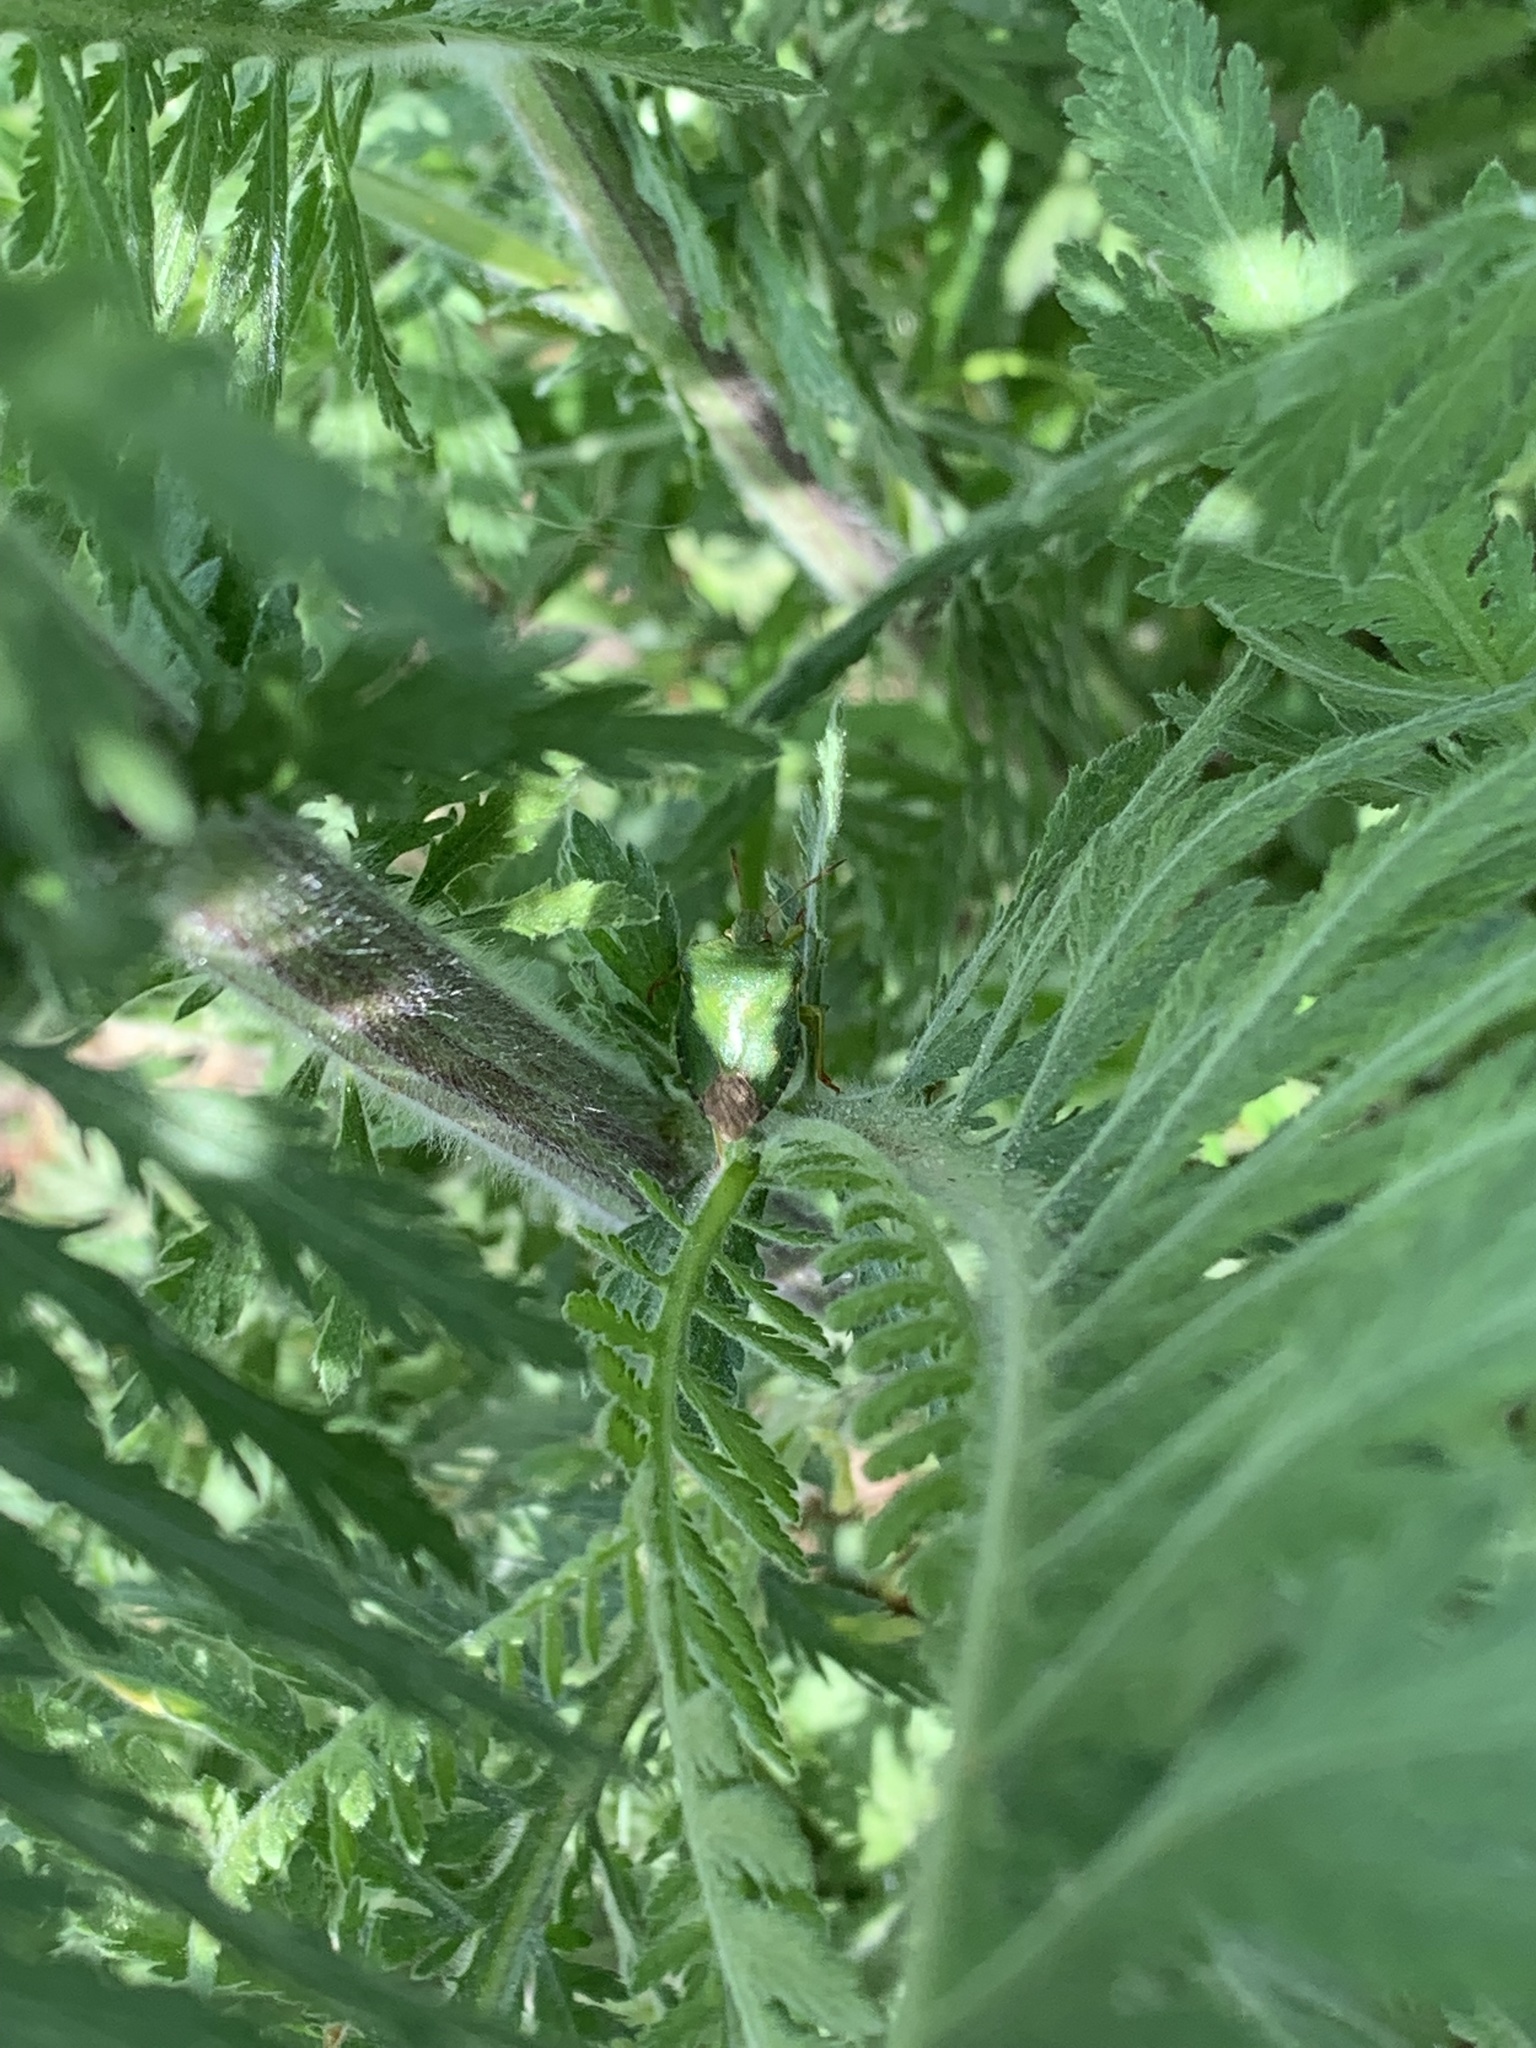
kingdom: Animalia
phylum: Arthropoda
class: Insecta
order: Hemiptera
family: Pentatomidae
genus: Palomena
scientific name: Palomena prasina
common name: Green shieldbug
